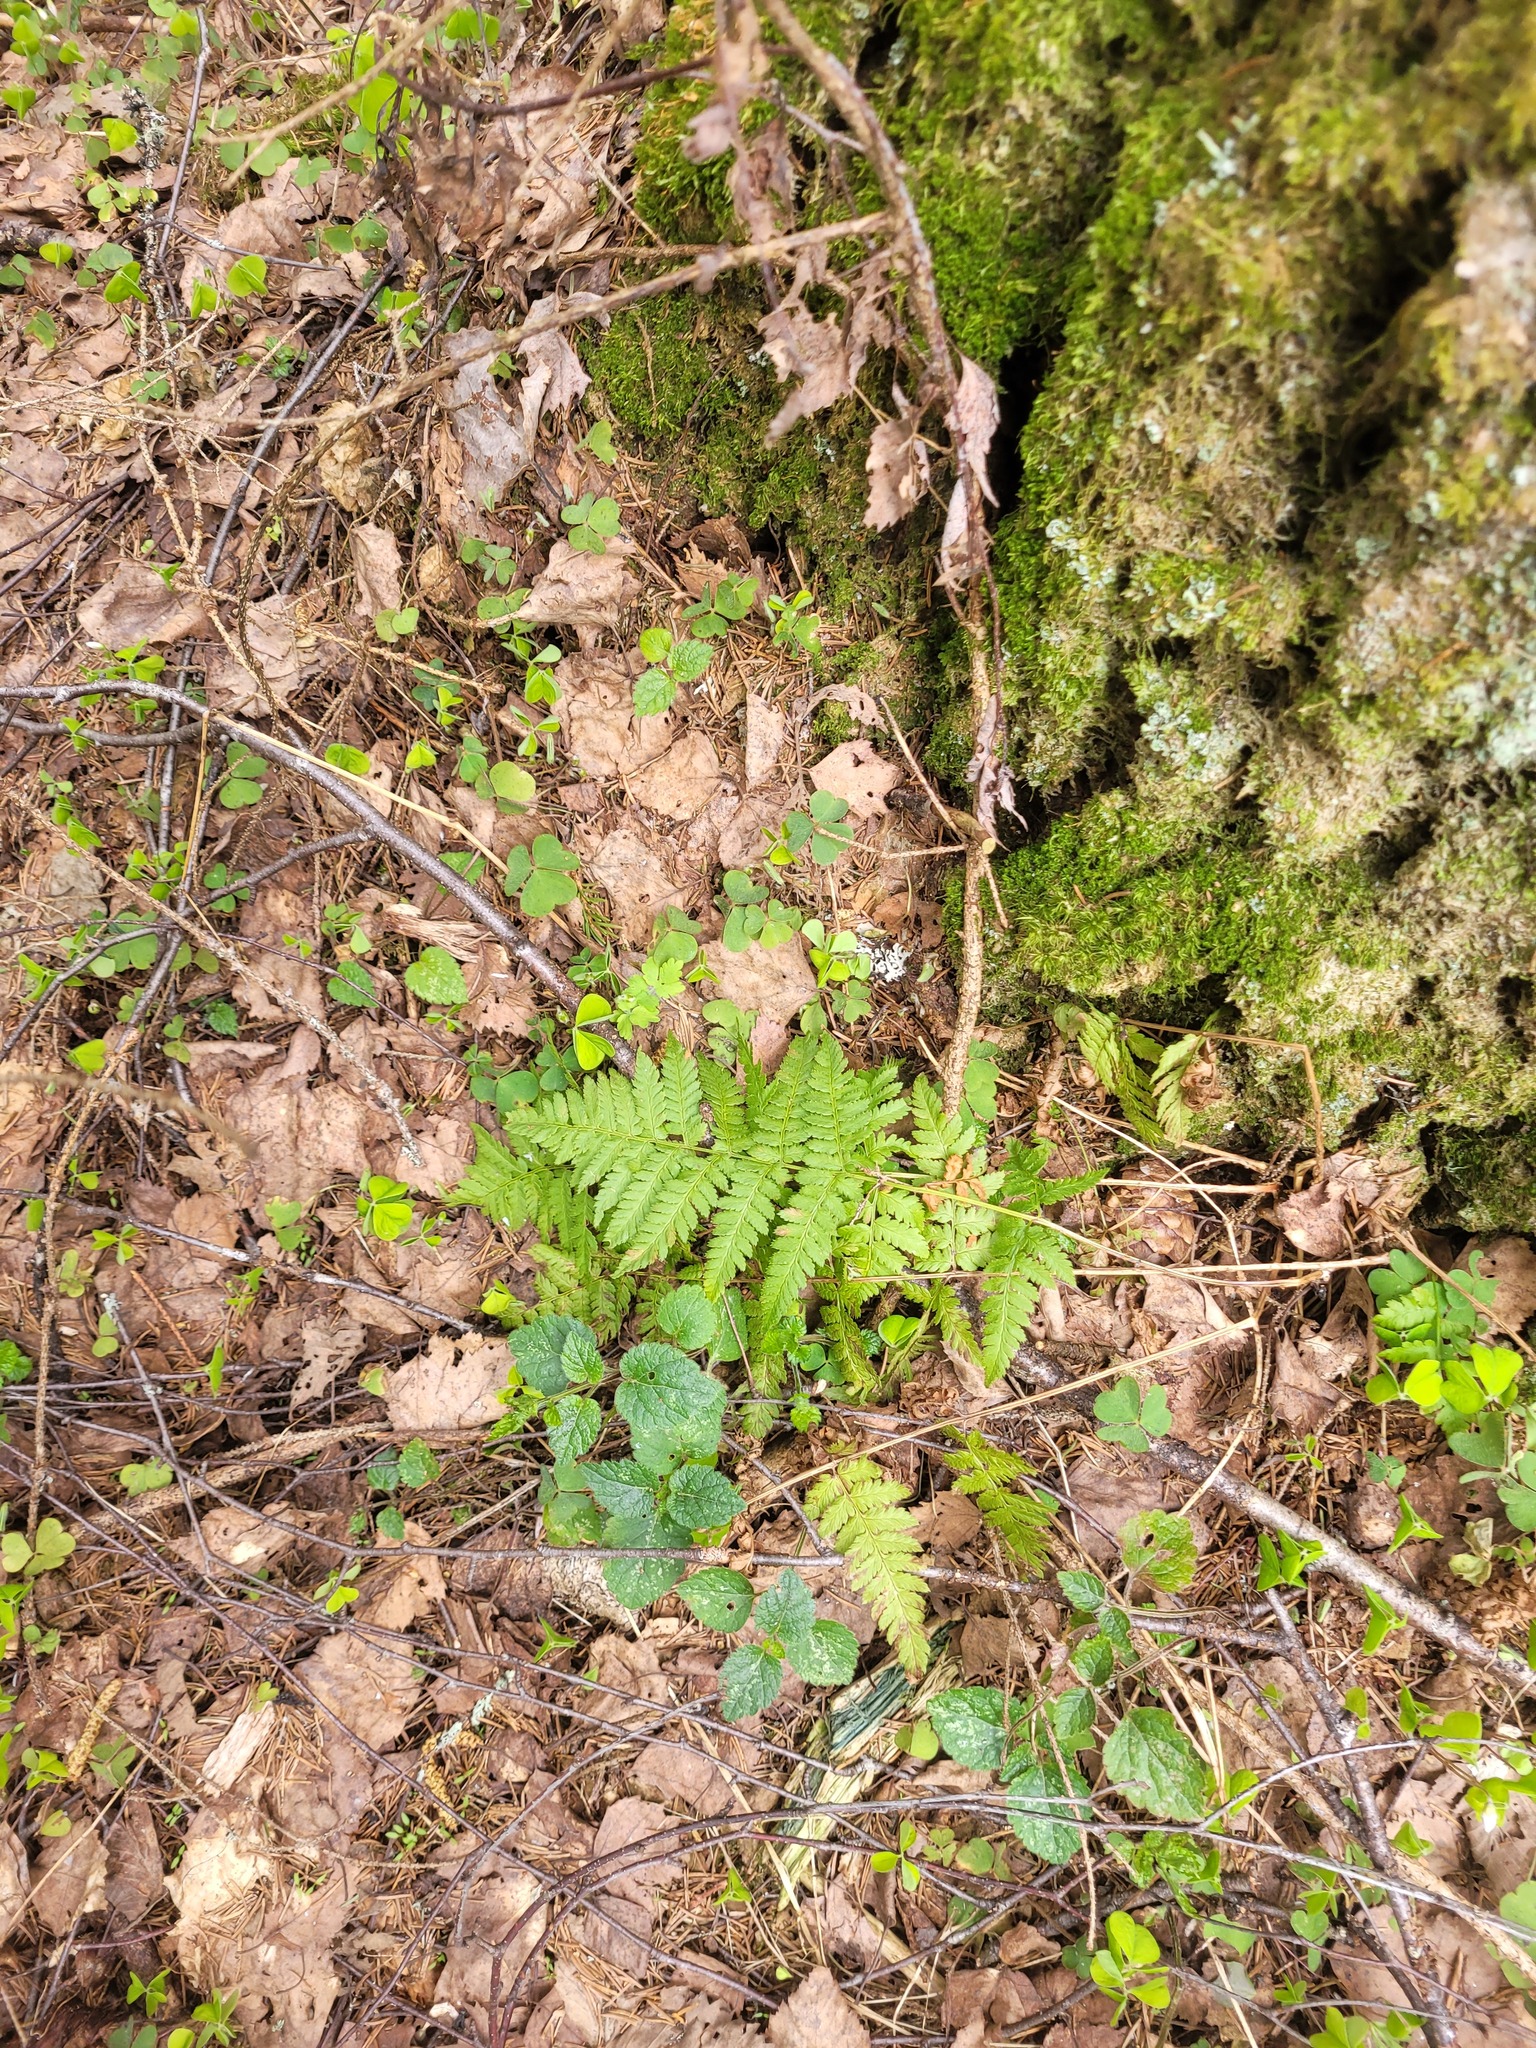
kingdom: Plantae
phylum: Tracheophyta
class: Polypodiopsida
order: Polypodiales
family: Dryopteridaceae
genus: Dryopteris
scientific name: Dryopteris carthusiana
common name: Narrow buckler-fern
